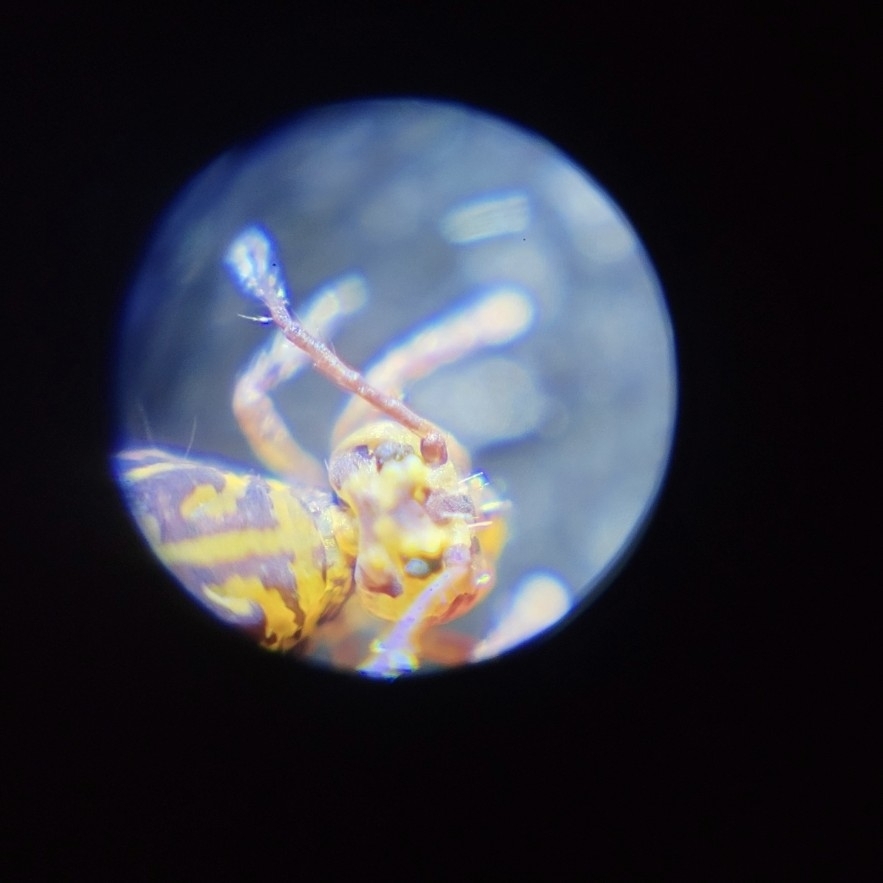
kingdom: Animalia
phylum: Arthropoda
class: Collembola
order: Symphypleona
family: Dicyrtomidae
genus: Dicyrtomina
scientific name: Dicyrtomina minuta
